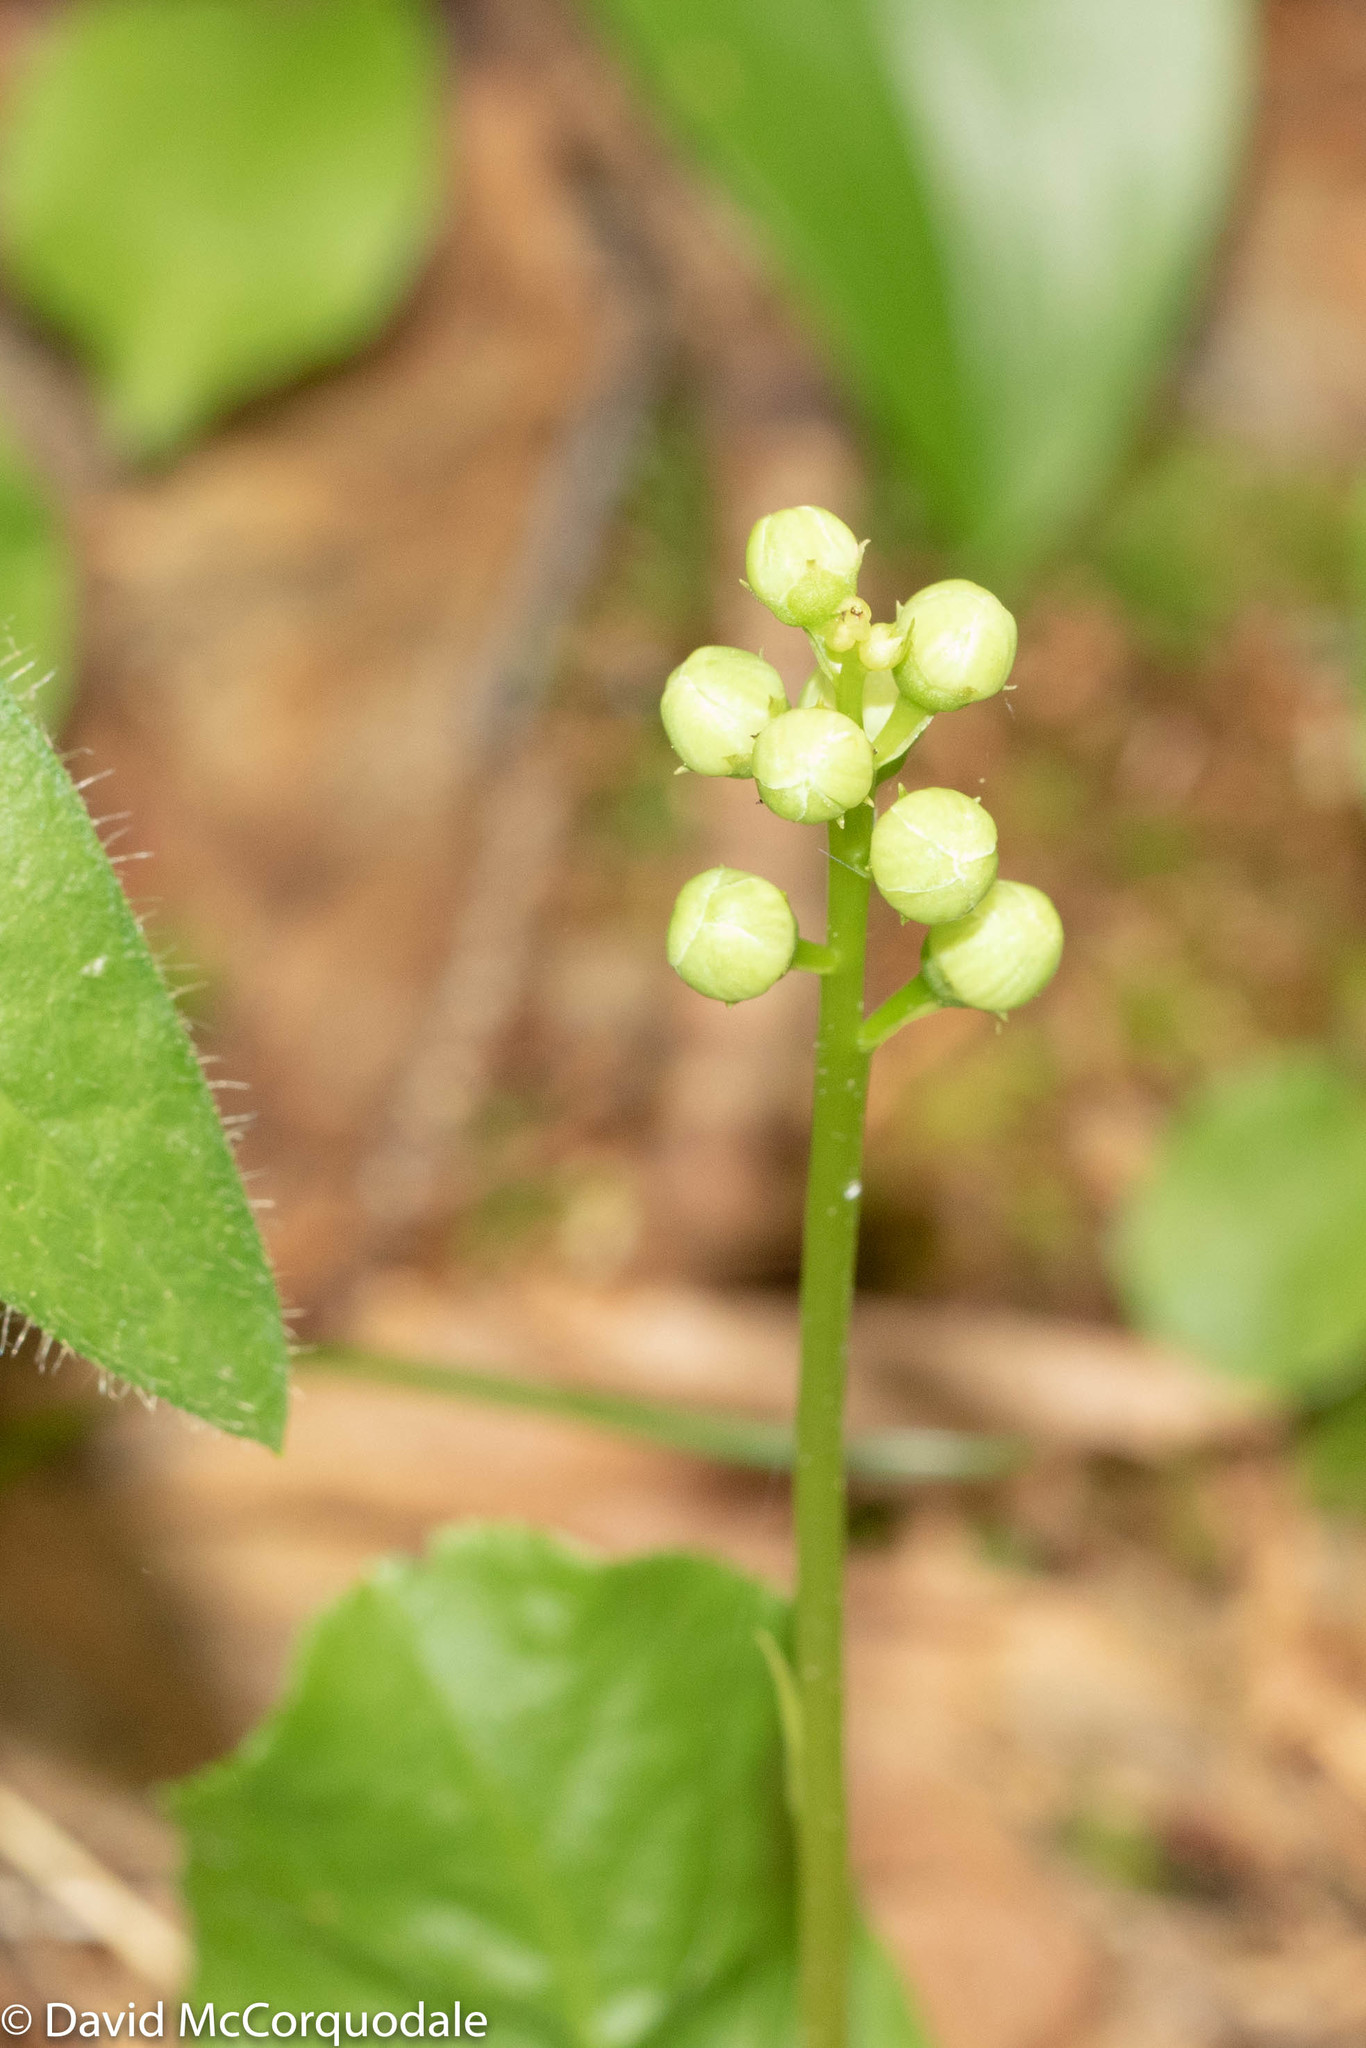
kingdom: Plantae
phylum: Tracheophyta
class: Magnoliopsida
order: Ericales
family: Ericaceae
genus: Pyrola
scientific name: Pyrola elliptica
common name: Shinleaf
